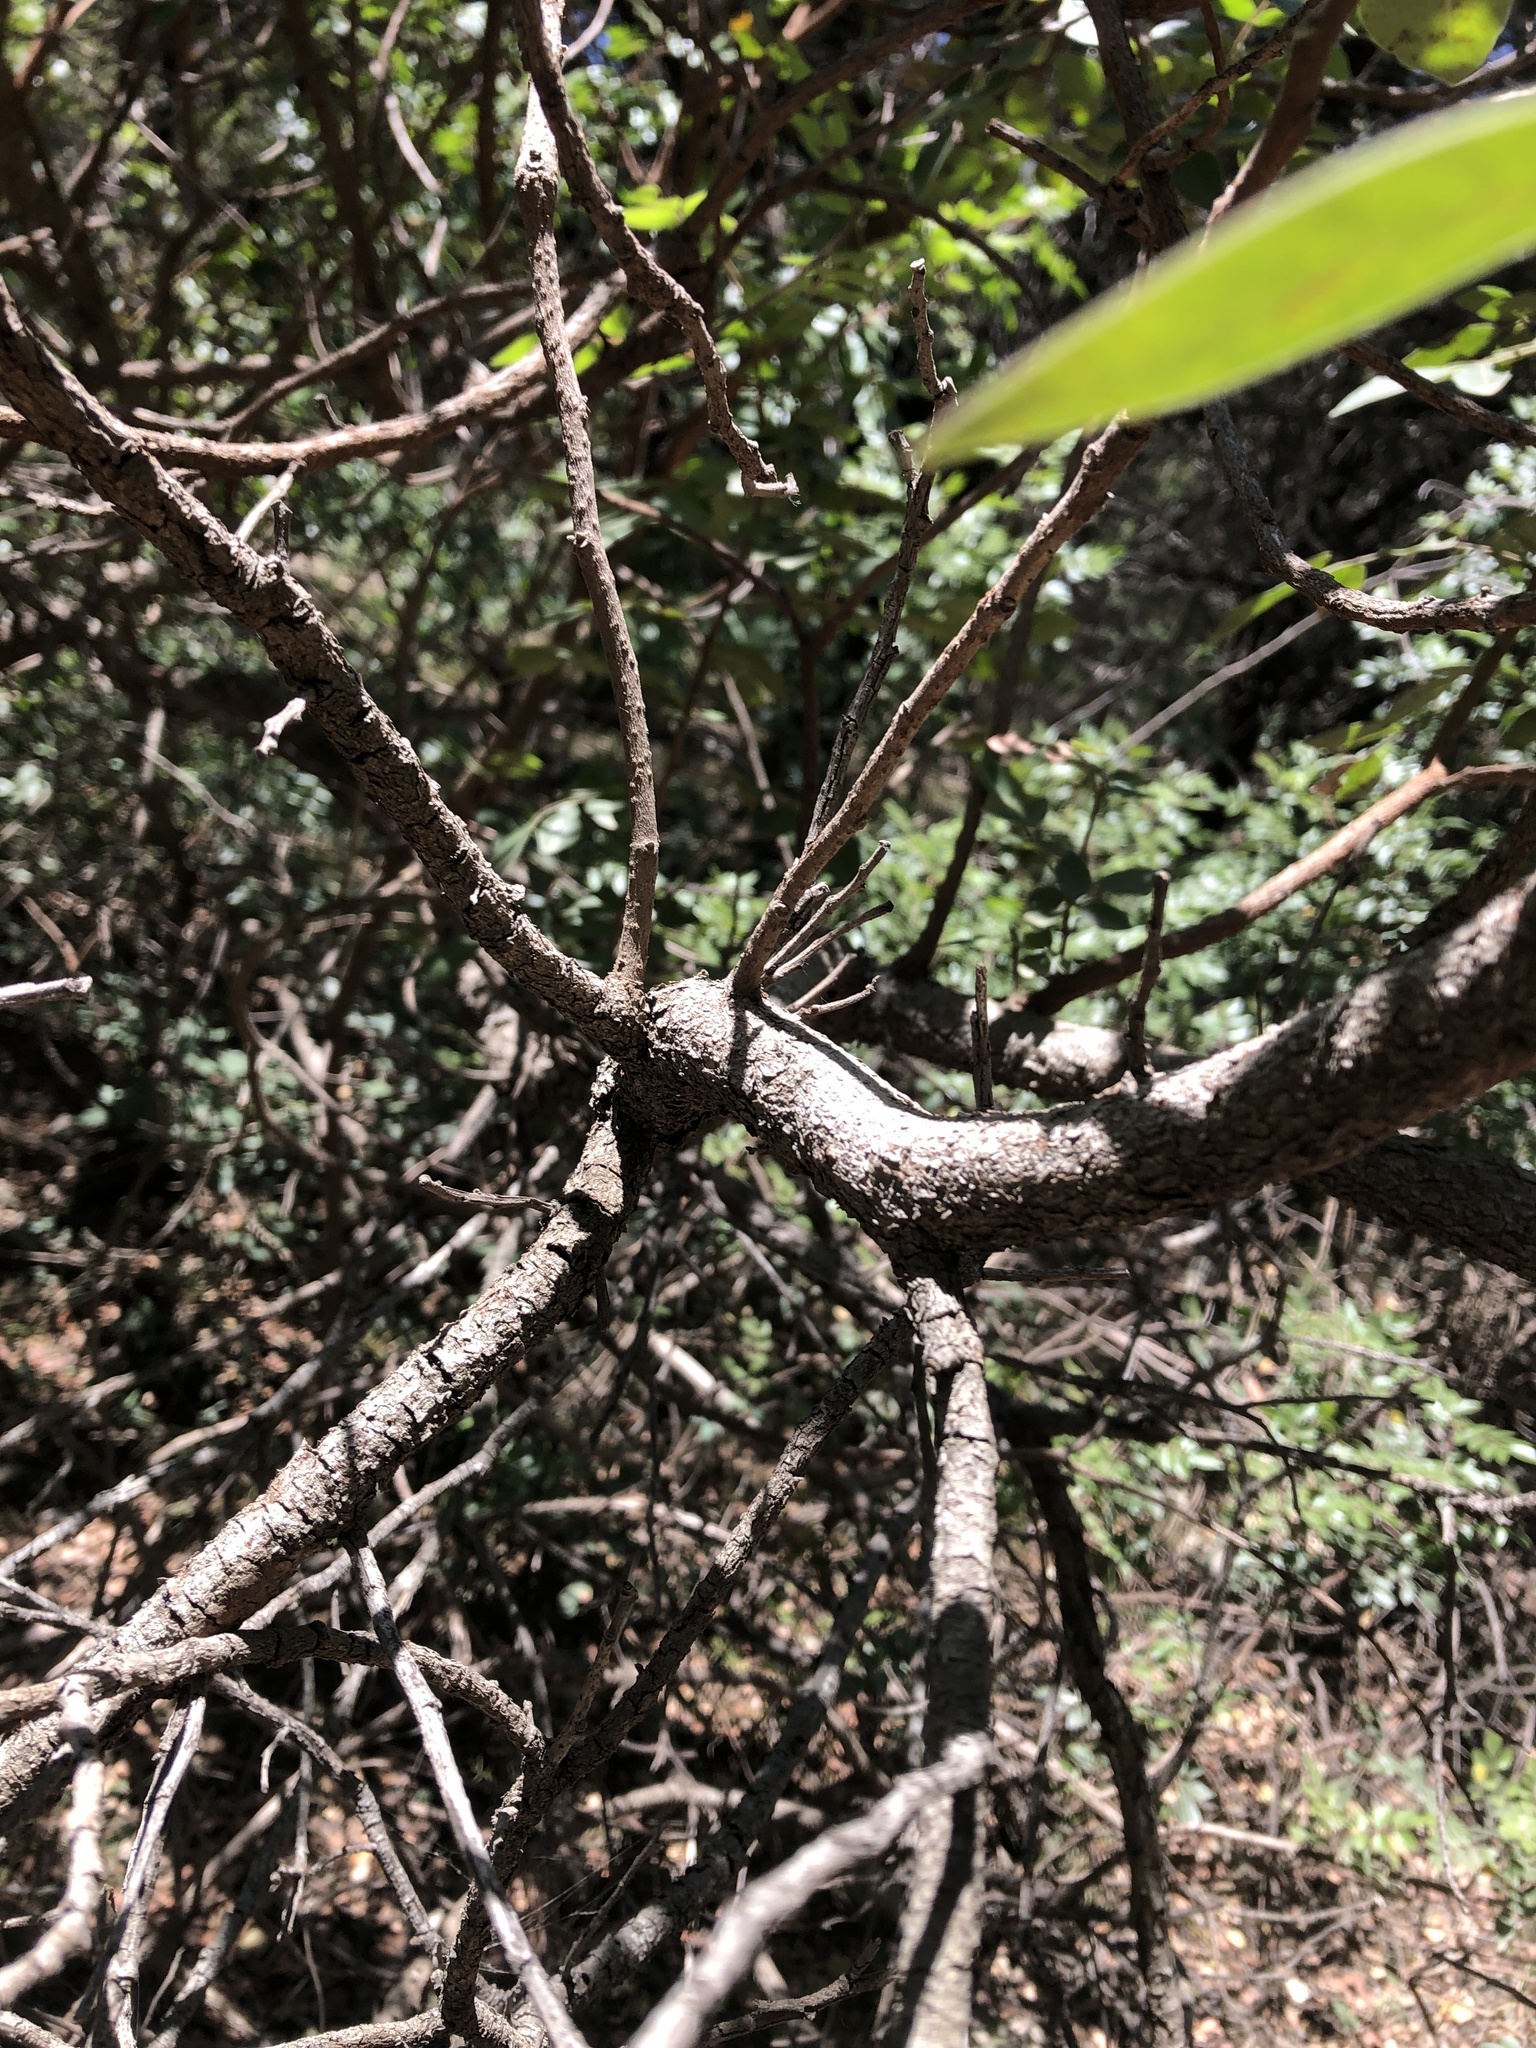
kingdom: Plantae
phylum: Tracheophyta
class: Magnoliopsida
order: Sapindales
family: Anacardiaceae
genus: Rhus
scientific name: Rhus virens
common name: Evergreen sumac
